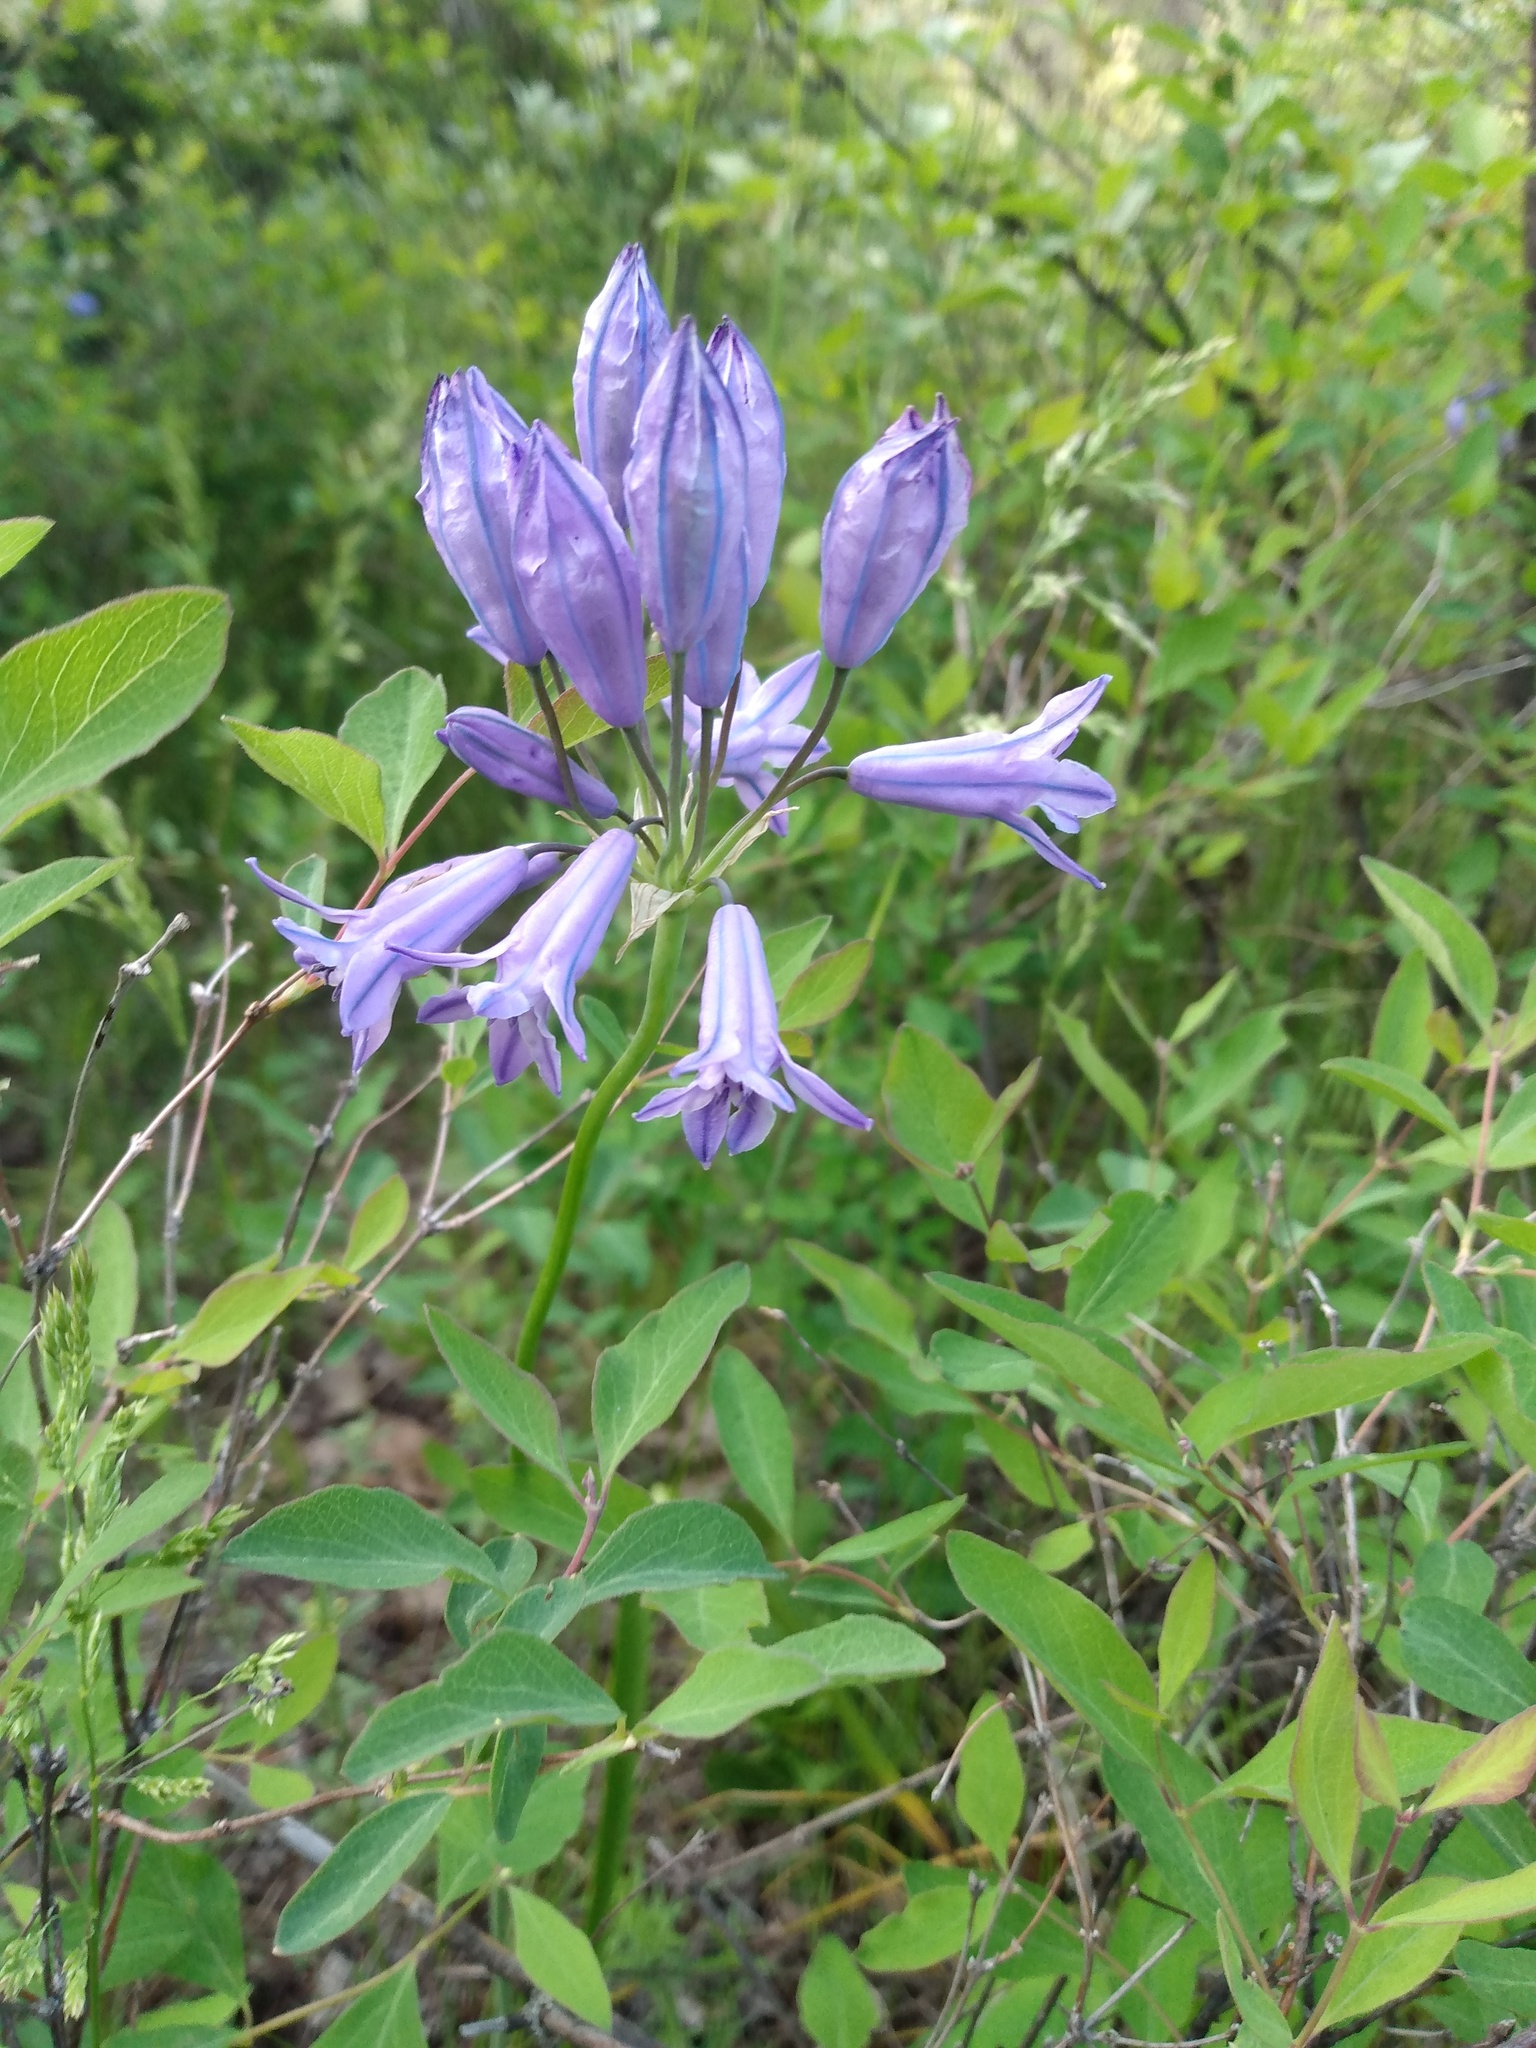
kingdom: Plantae
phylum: Tracheophyta
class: Liliopsida
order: Asparagales
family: Asparagaceae
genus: Triteleia
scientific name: Triteleia grandiflora
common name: Wild hyacinth
